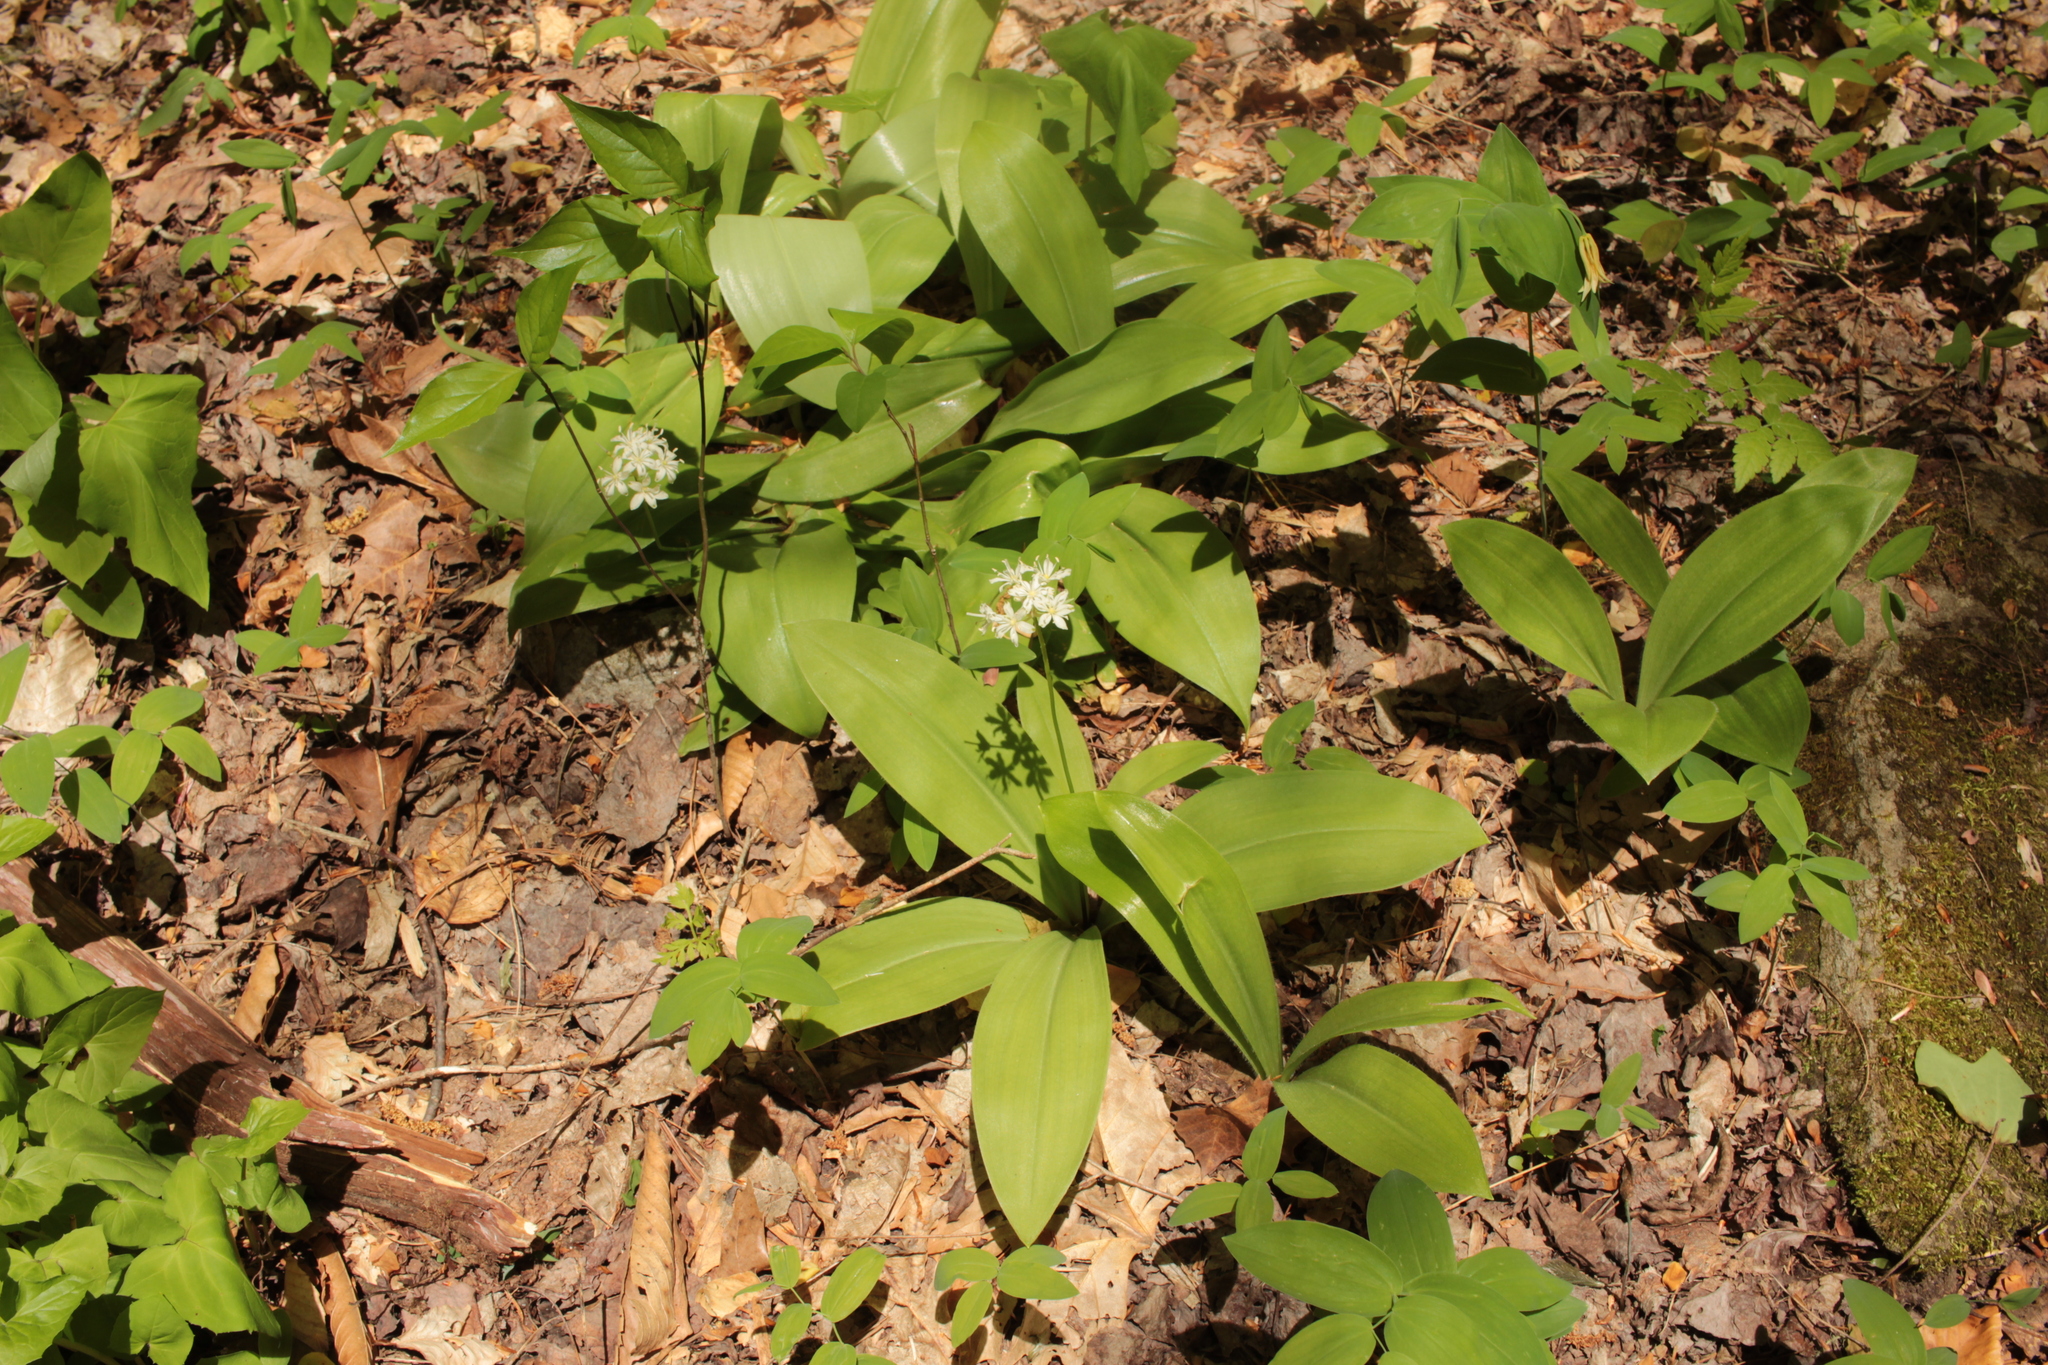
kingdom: Plantae
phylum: Tracheophyta
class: Liliopsida
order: Liliales
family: Liliaceae
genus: Clintonia
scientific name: Clintonia umbellulata
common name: Speckle wood-lily
